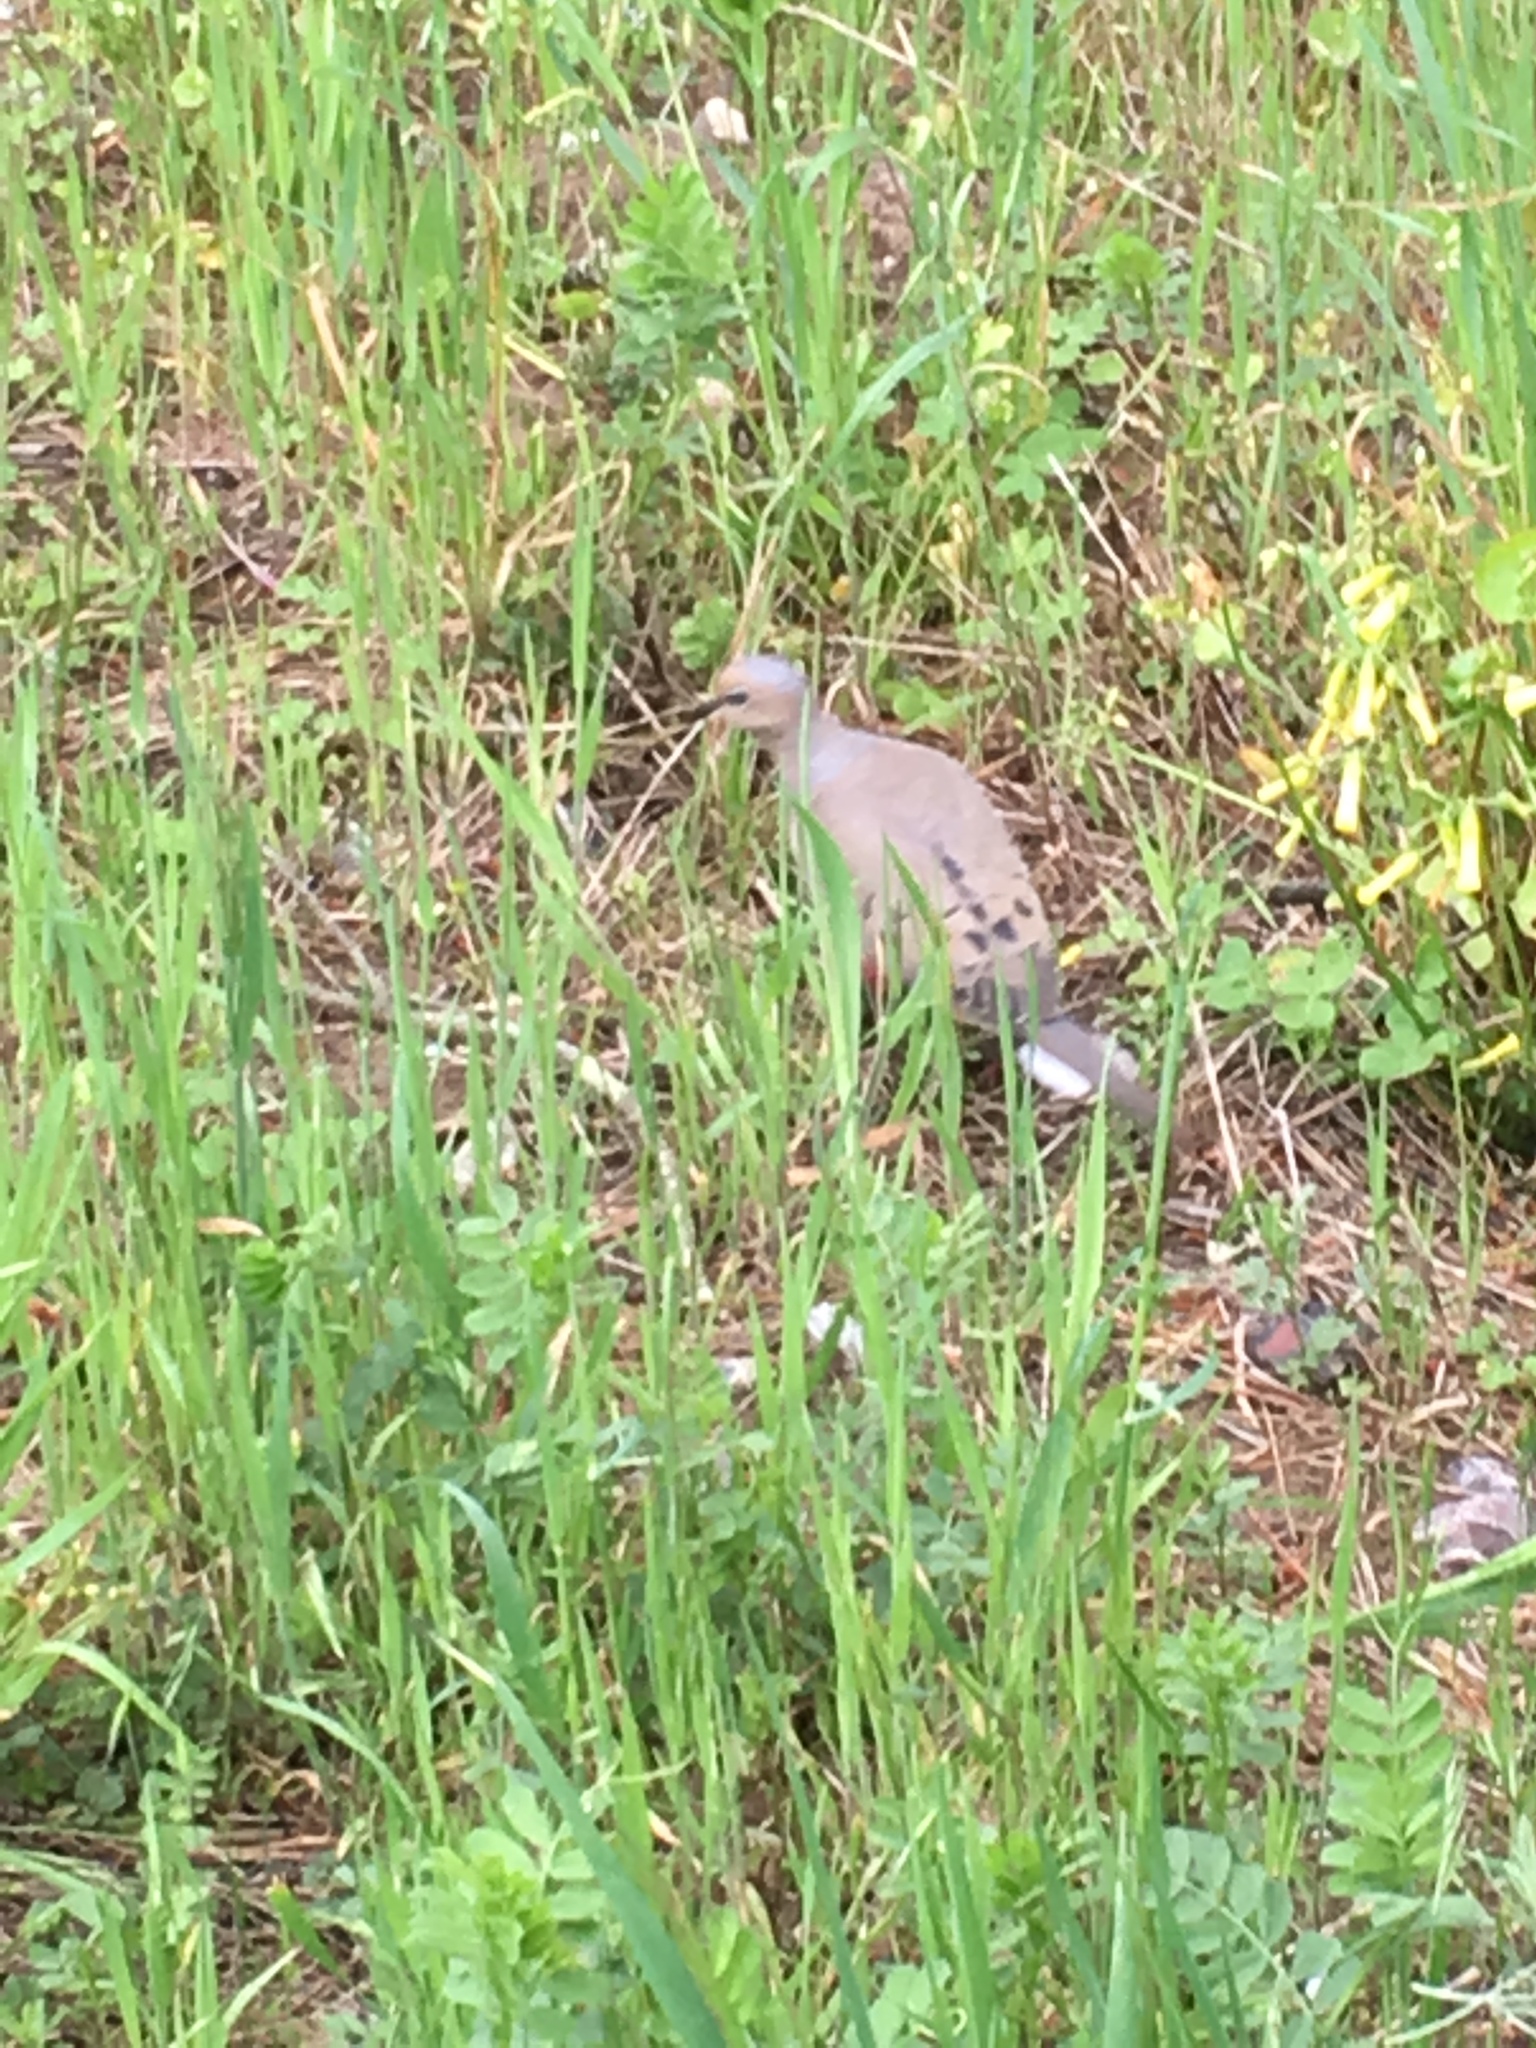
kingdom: Animalia
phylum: Chordata
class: Aves
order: Columbiformes
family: Columbidae
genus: Zenaida
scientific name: Zenaida macroura
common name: Mourning dove
